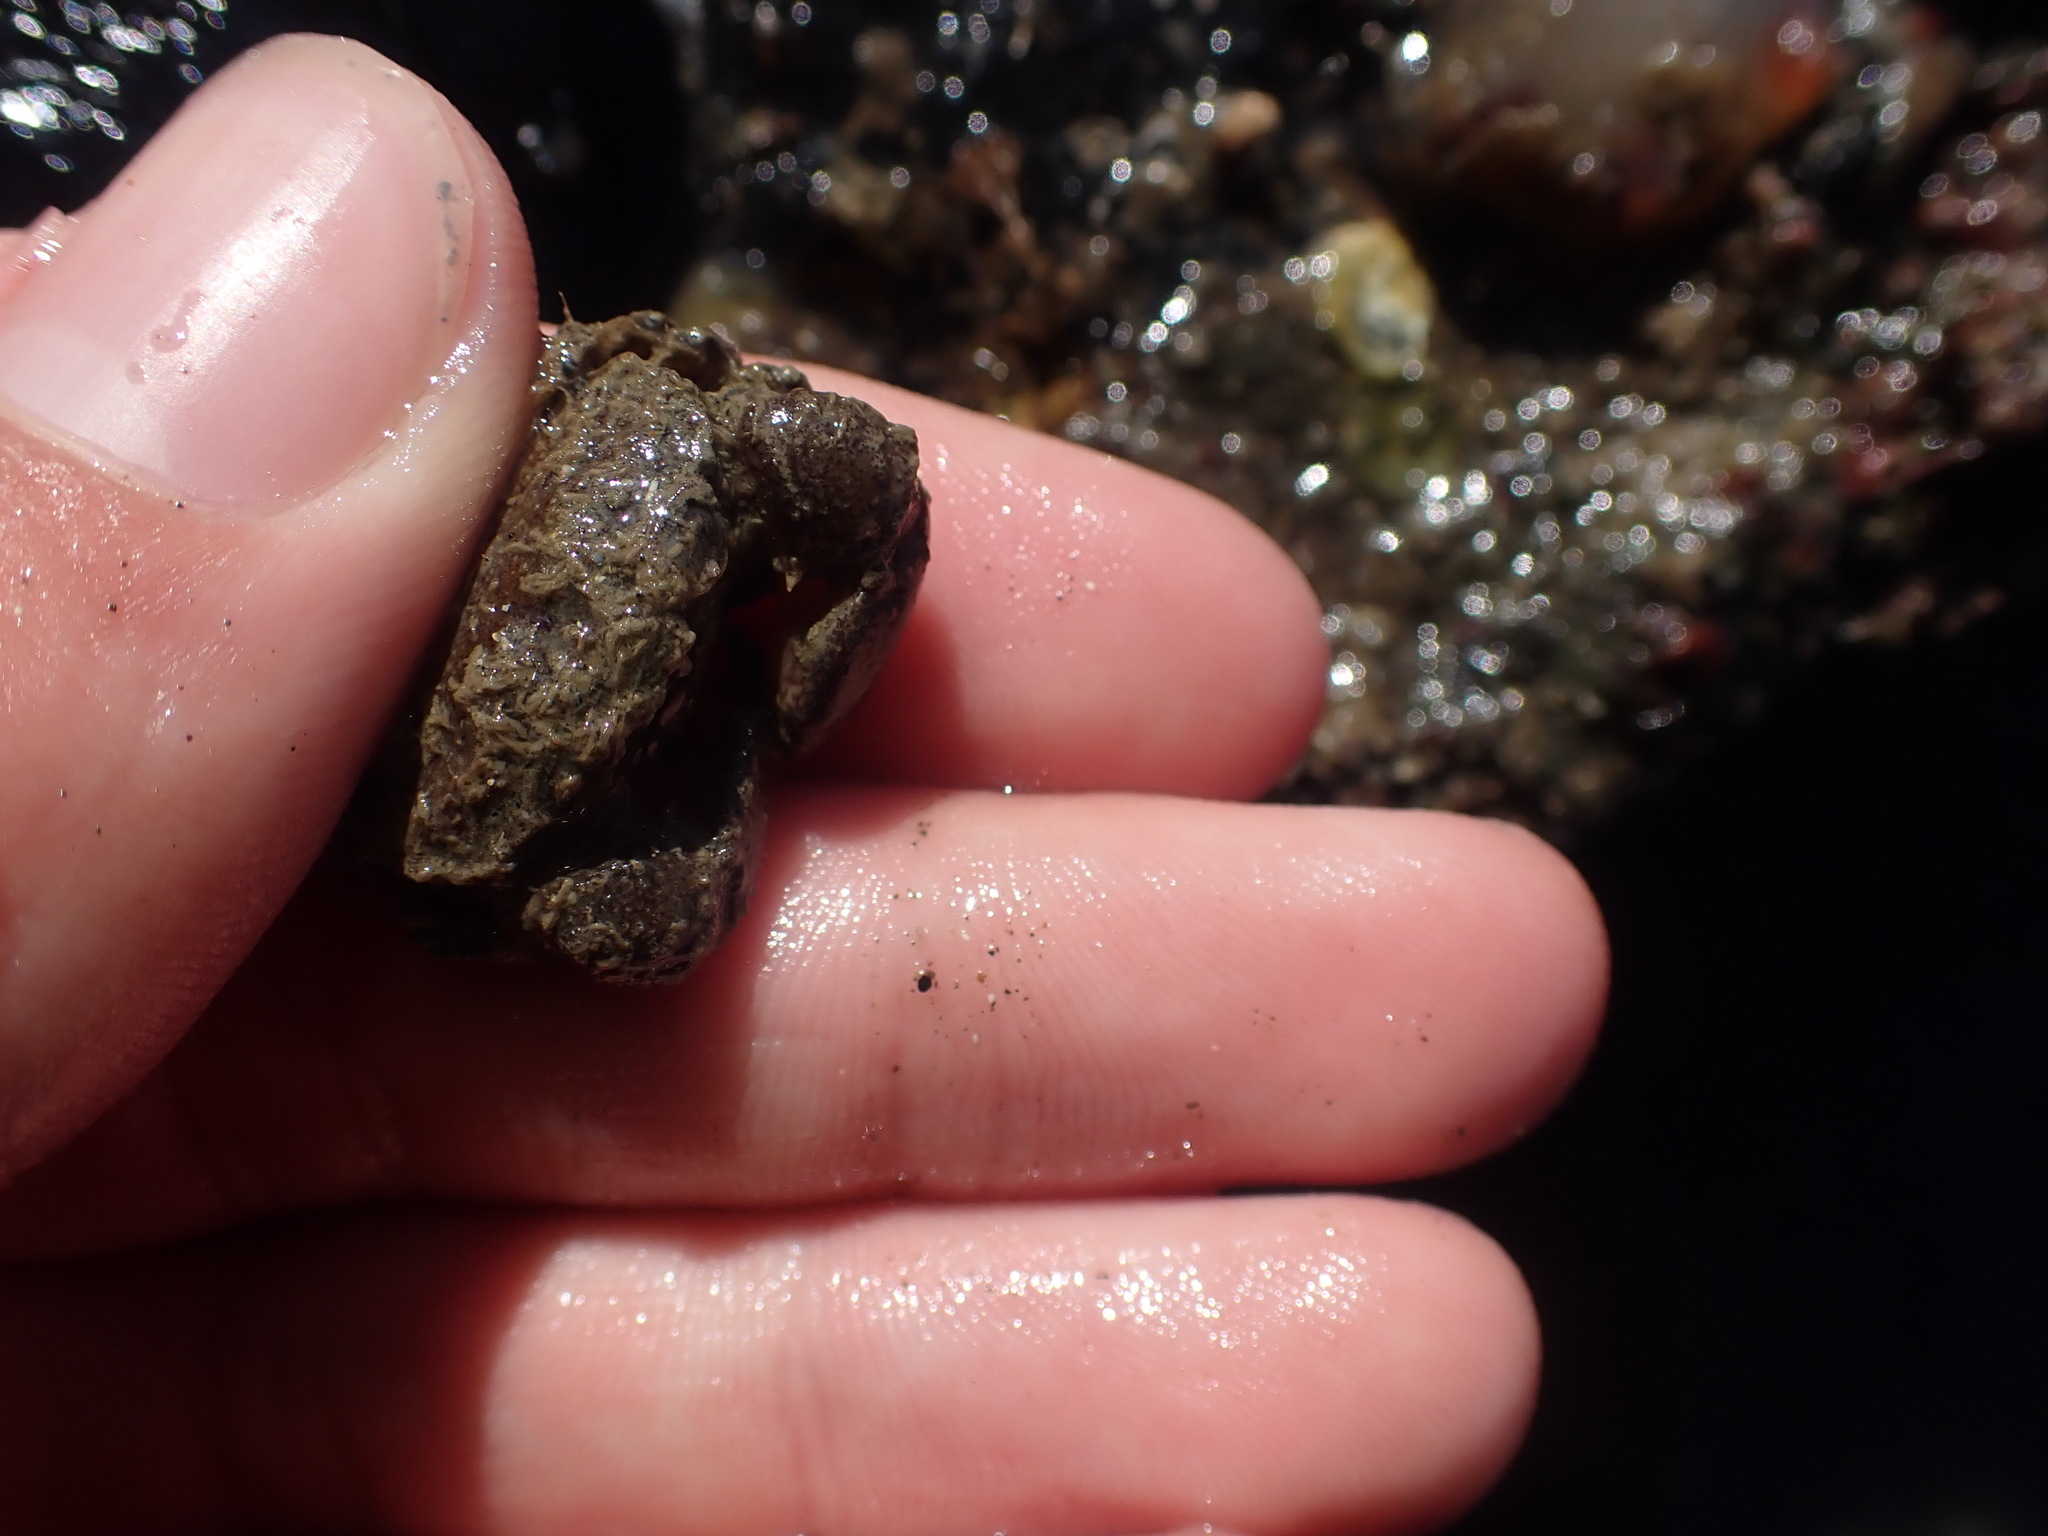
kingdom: Animalia
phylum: Arthropoda
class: Malacostraca
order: Decapoda
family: Pilumnidae
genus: Pilumnopeus
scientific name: Pilumnopeus serratifrons
